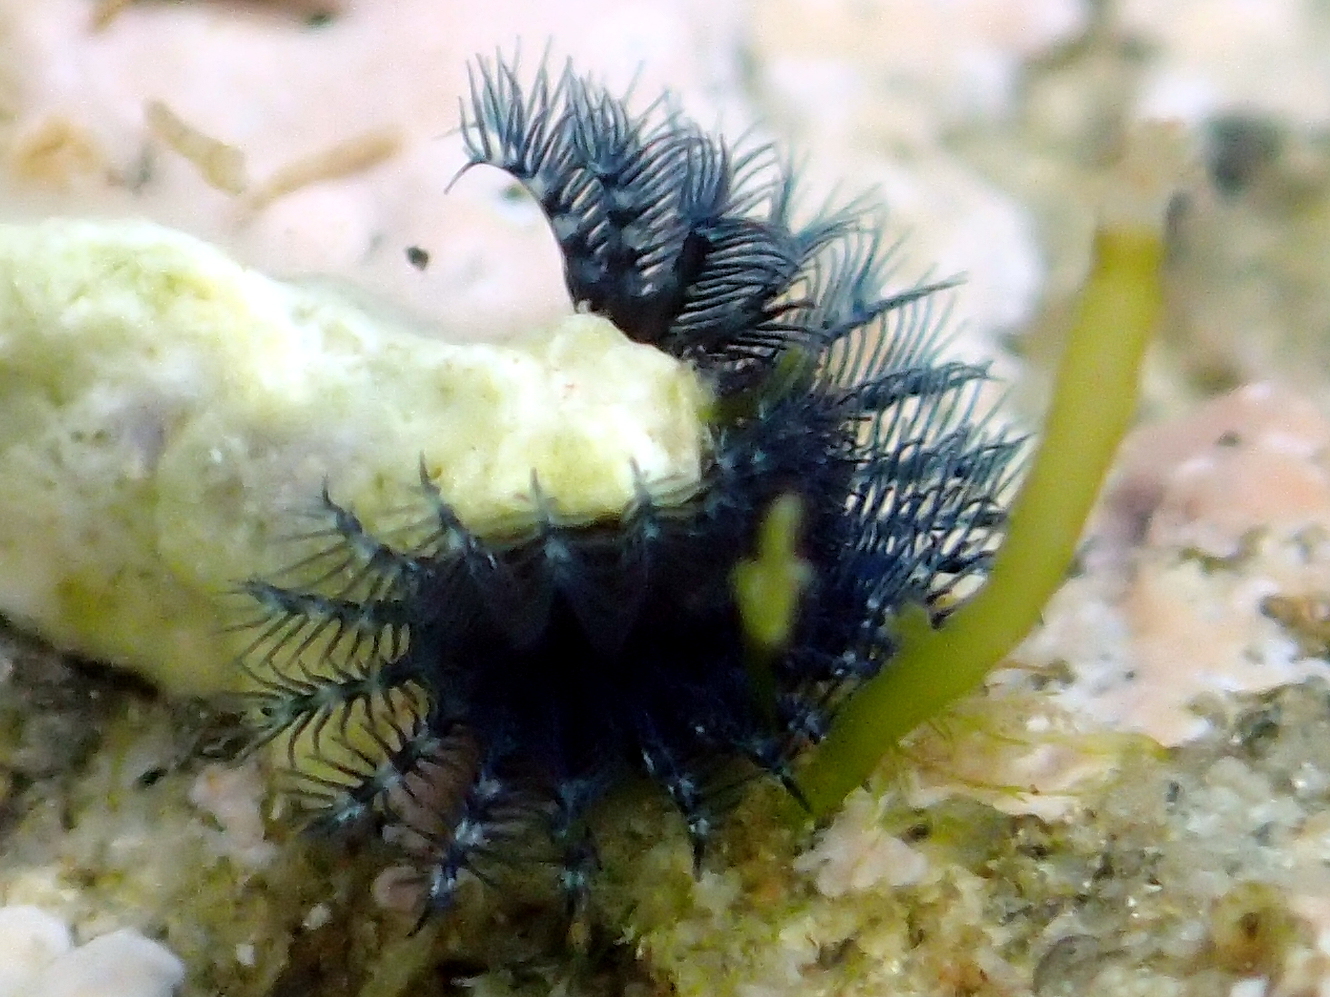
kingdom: Animalia
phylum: Annelida
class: Polychaeta
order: Sabellida
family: Serpulidae
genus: Spirobranchus
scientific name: Spirobranchus cariniferus
